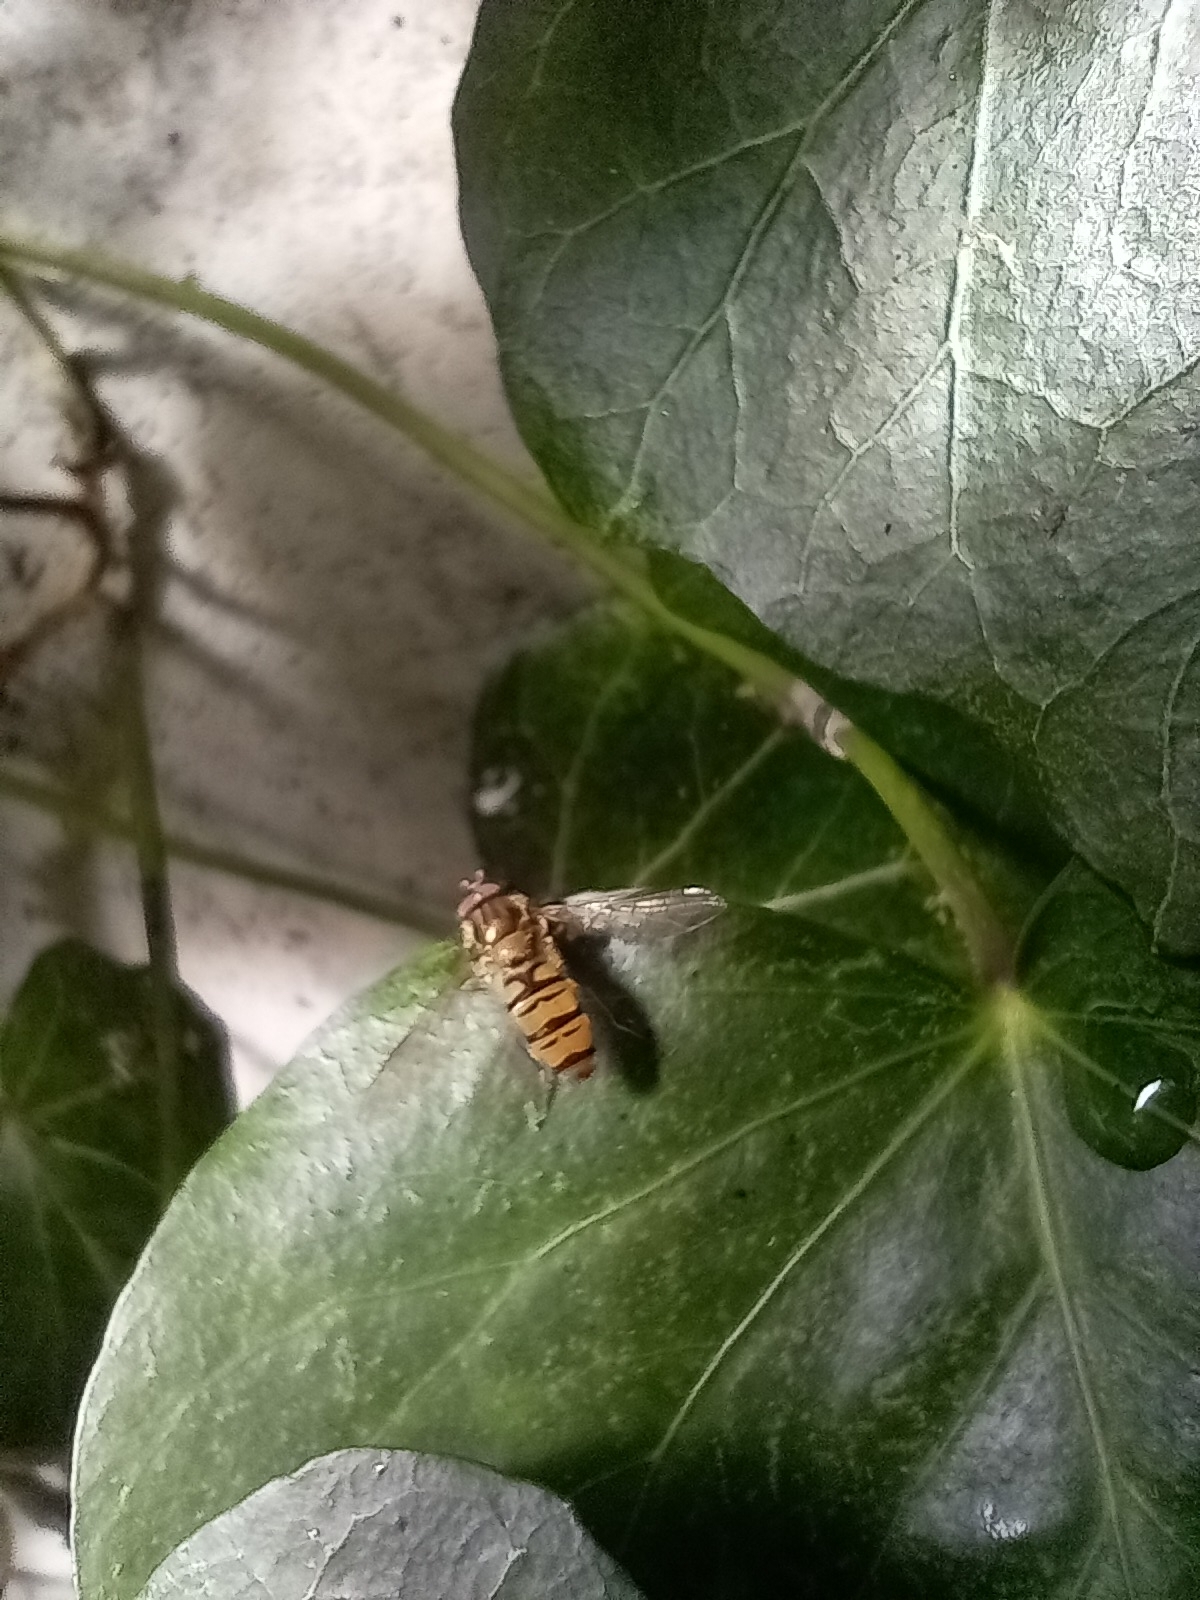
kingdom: Animalia
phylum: Arthropoda
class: Insecta
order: Diptera
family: Syrphidae
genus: Episyrphus
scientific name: Episyrphus balteatus
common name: Marmalade hoverfly
